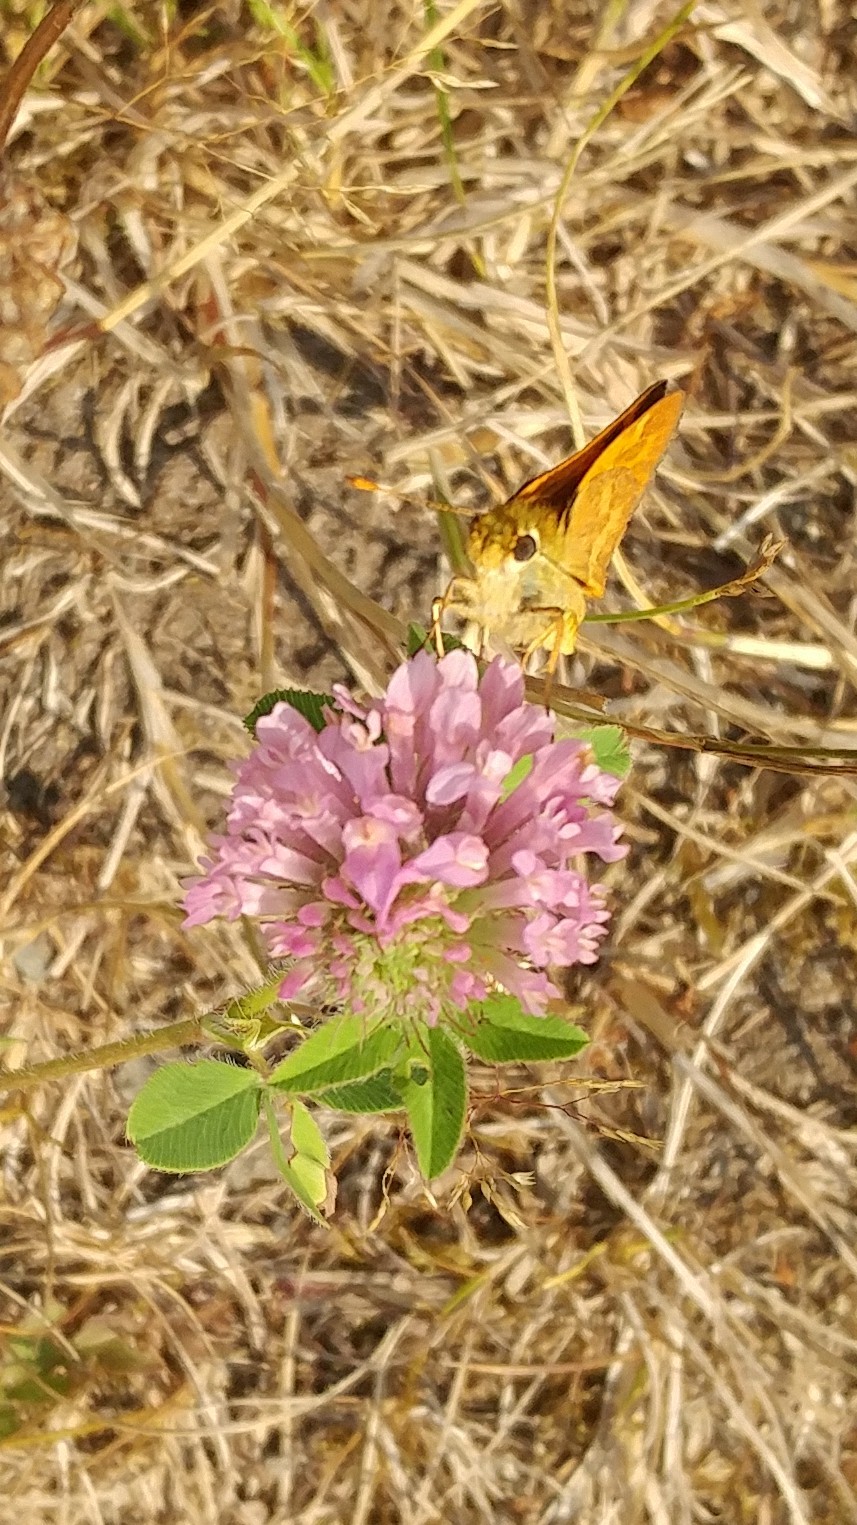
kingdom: Animalia
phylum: Arthropoda
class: Insecta
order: Lepidoptera
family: Hesperiidae
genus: Ochlodes
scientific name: Ochlodes sylvanoides
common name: Woodland skipper
